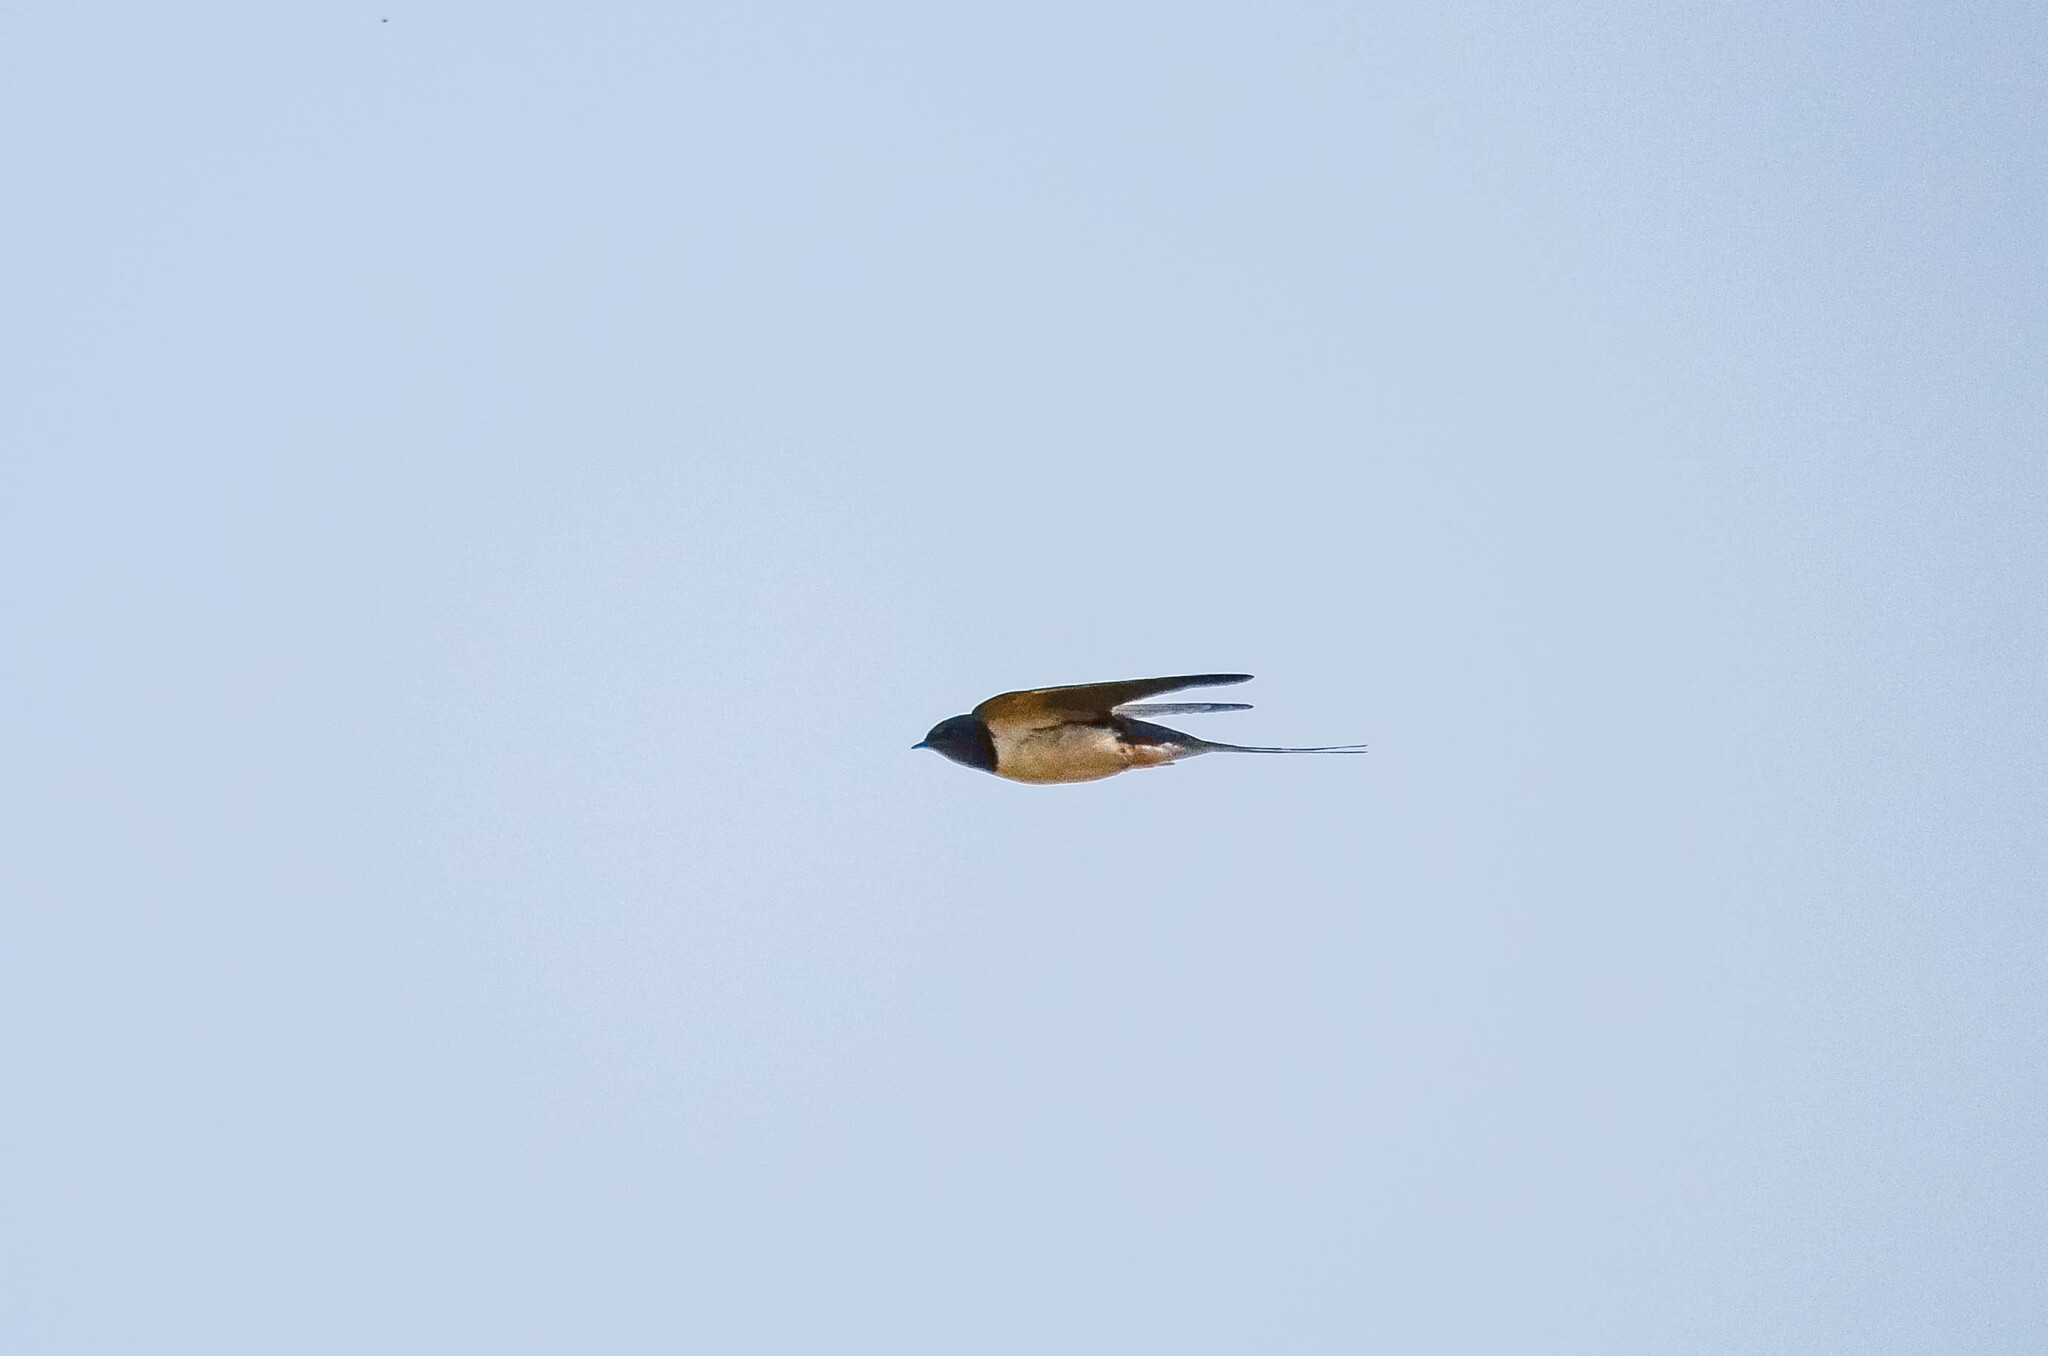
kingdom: Animalia
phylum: Chordata
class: Aves
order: Passeriformes
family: Hirundinidae
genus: Hirundo
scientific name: Hirundo rustica
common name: Barn swallow
